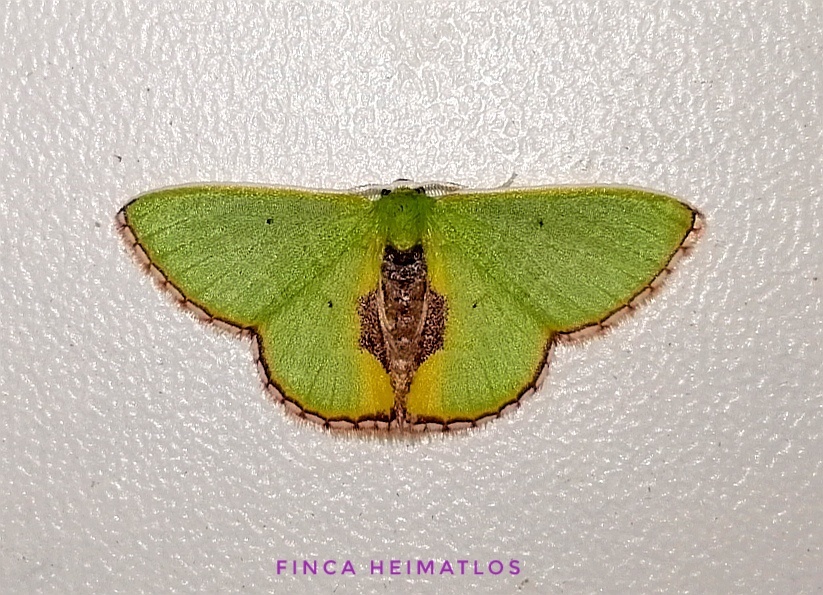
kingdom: Animalia
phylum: Arthropoda
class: Insecta
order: Lepidoptera
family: Geometridae
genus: Synchlora
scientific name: Synchlora astraeoides
